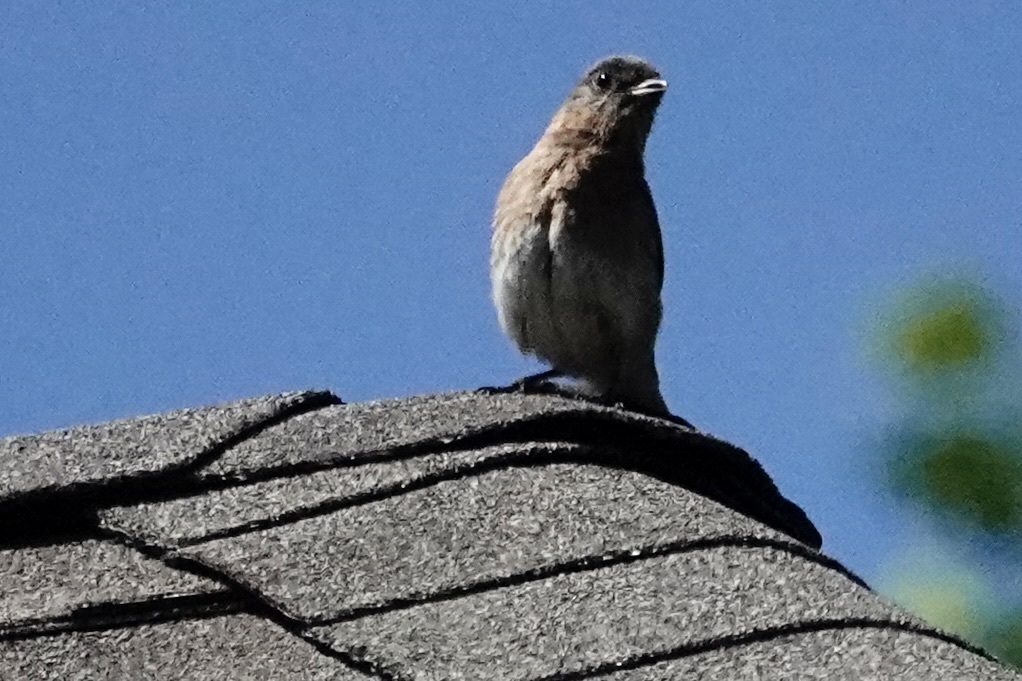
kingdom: Animalia
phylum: Chordata
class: Aves
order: Passeriformes
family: Turdidae
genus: Sialia
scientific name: Sialia sialis
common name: Eastern bluebird
